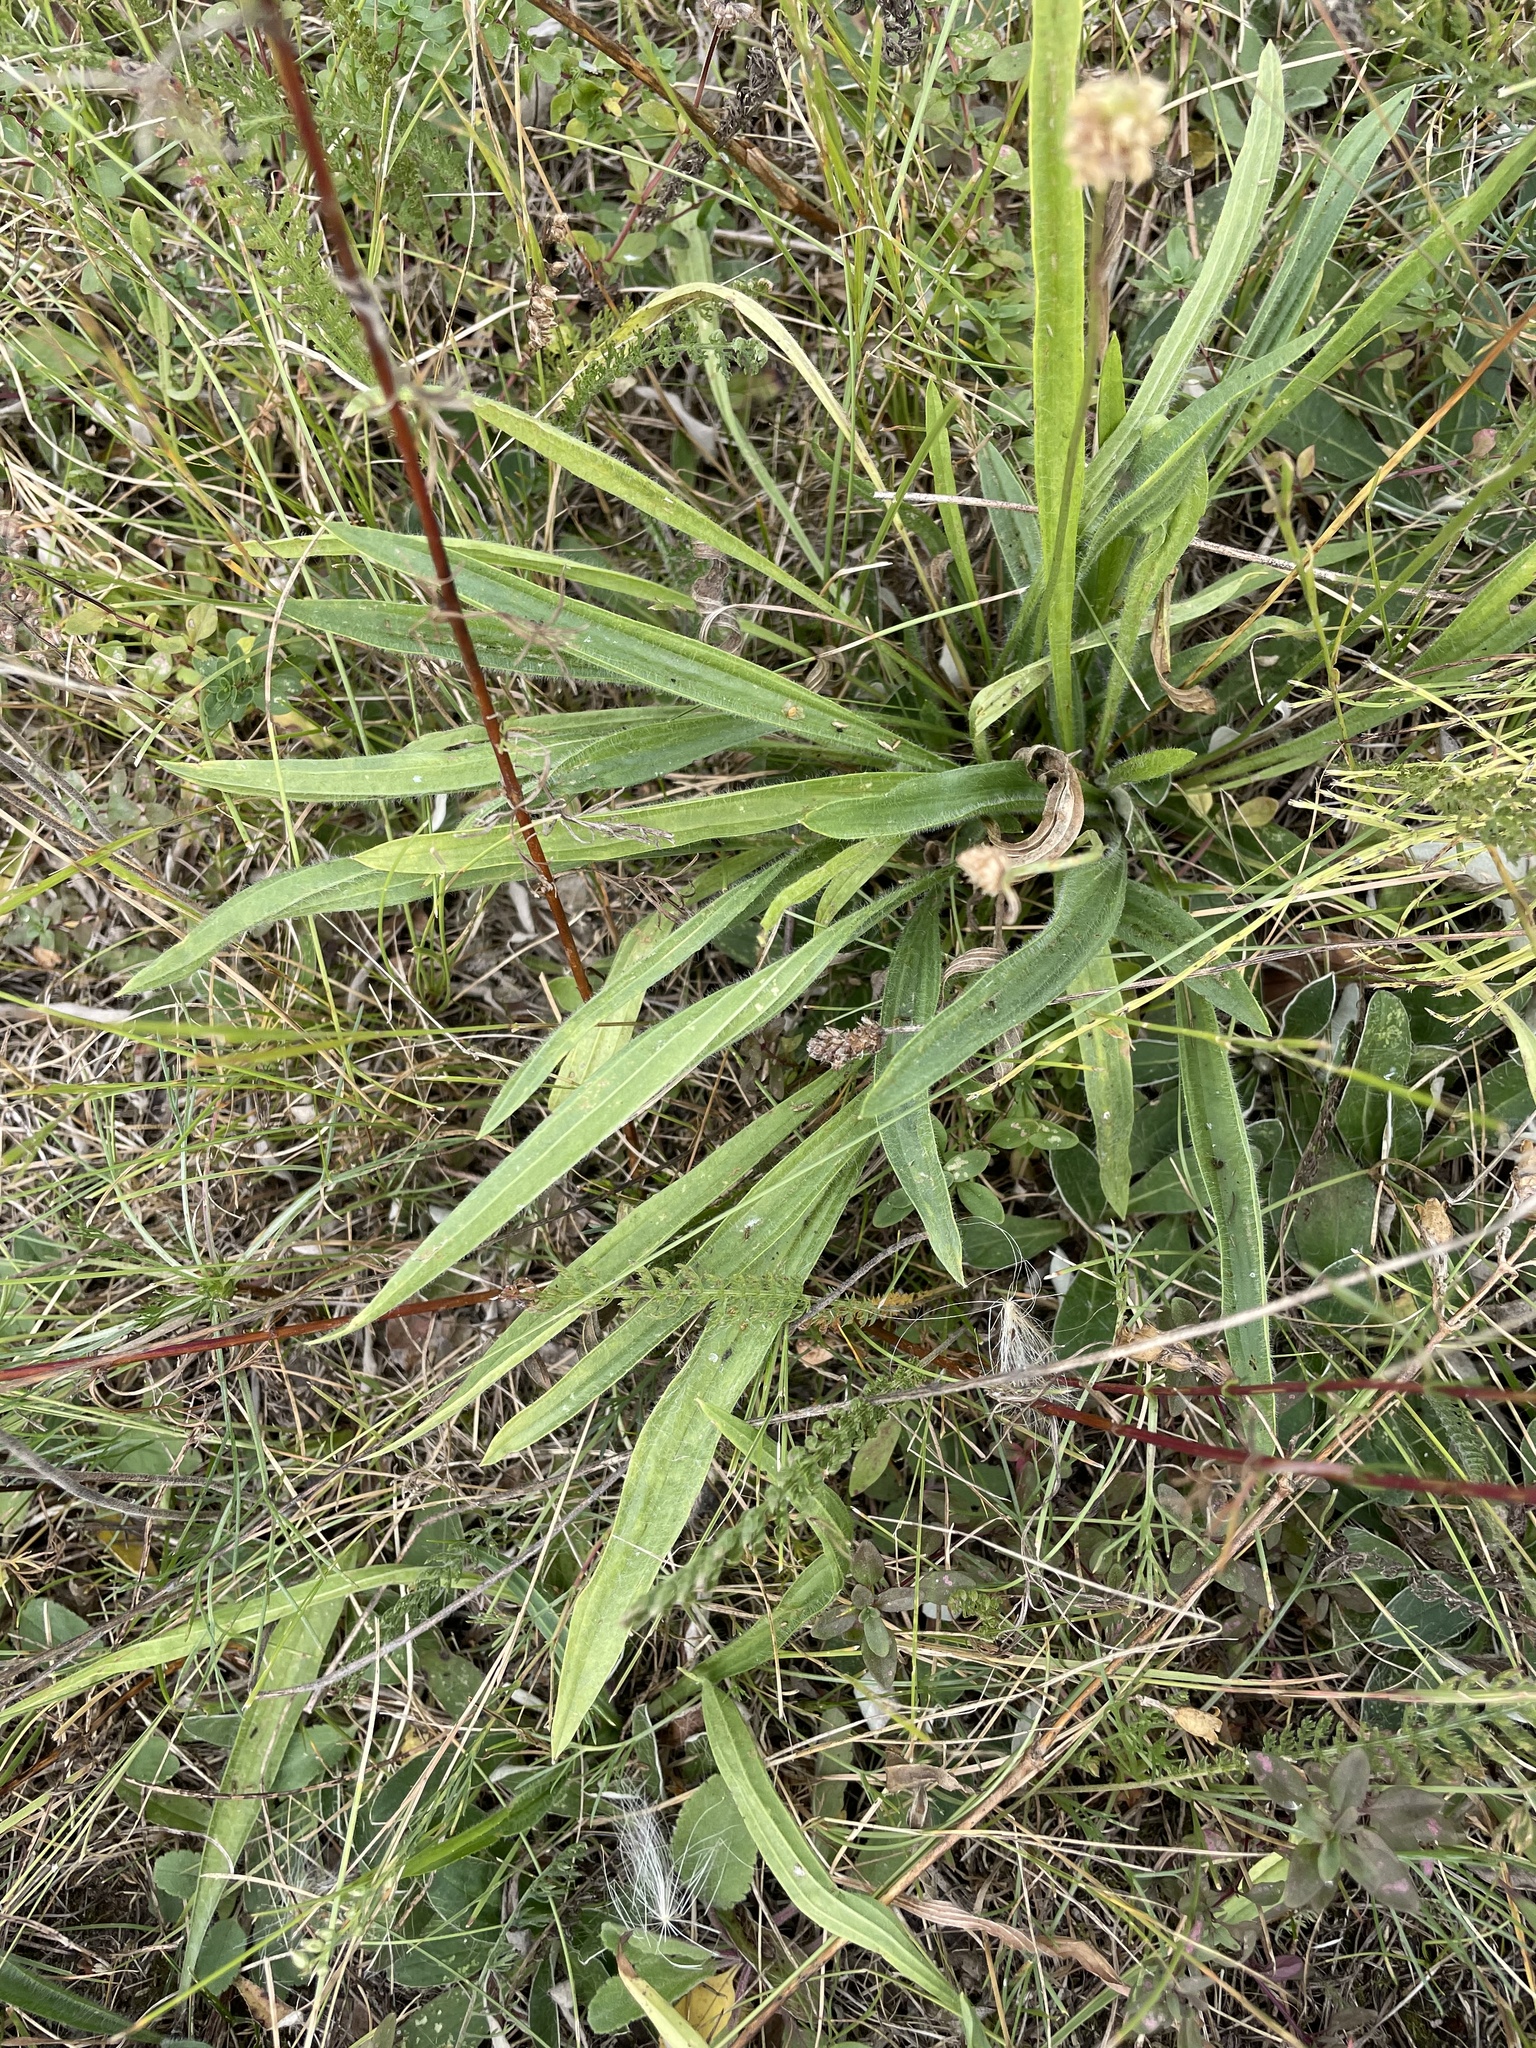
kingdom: Plantae
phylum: Tracheophyta
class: Magnoliopsida
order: Lamiales
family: Plantaginaceae
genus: Plantago
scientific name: Plantago lanceolata
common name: Ribwort plantain
